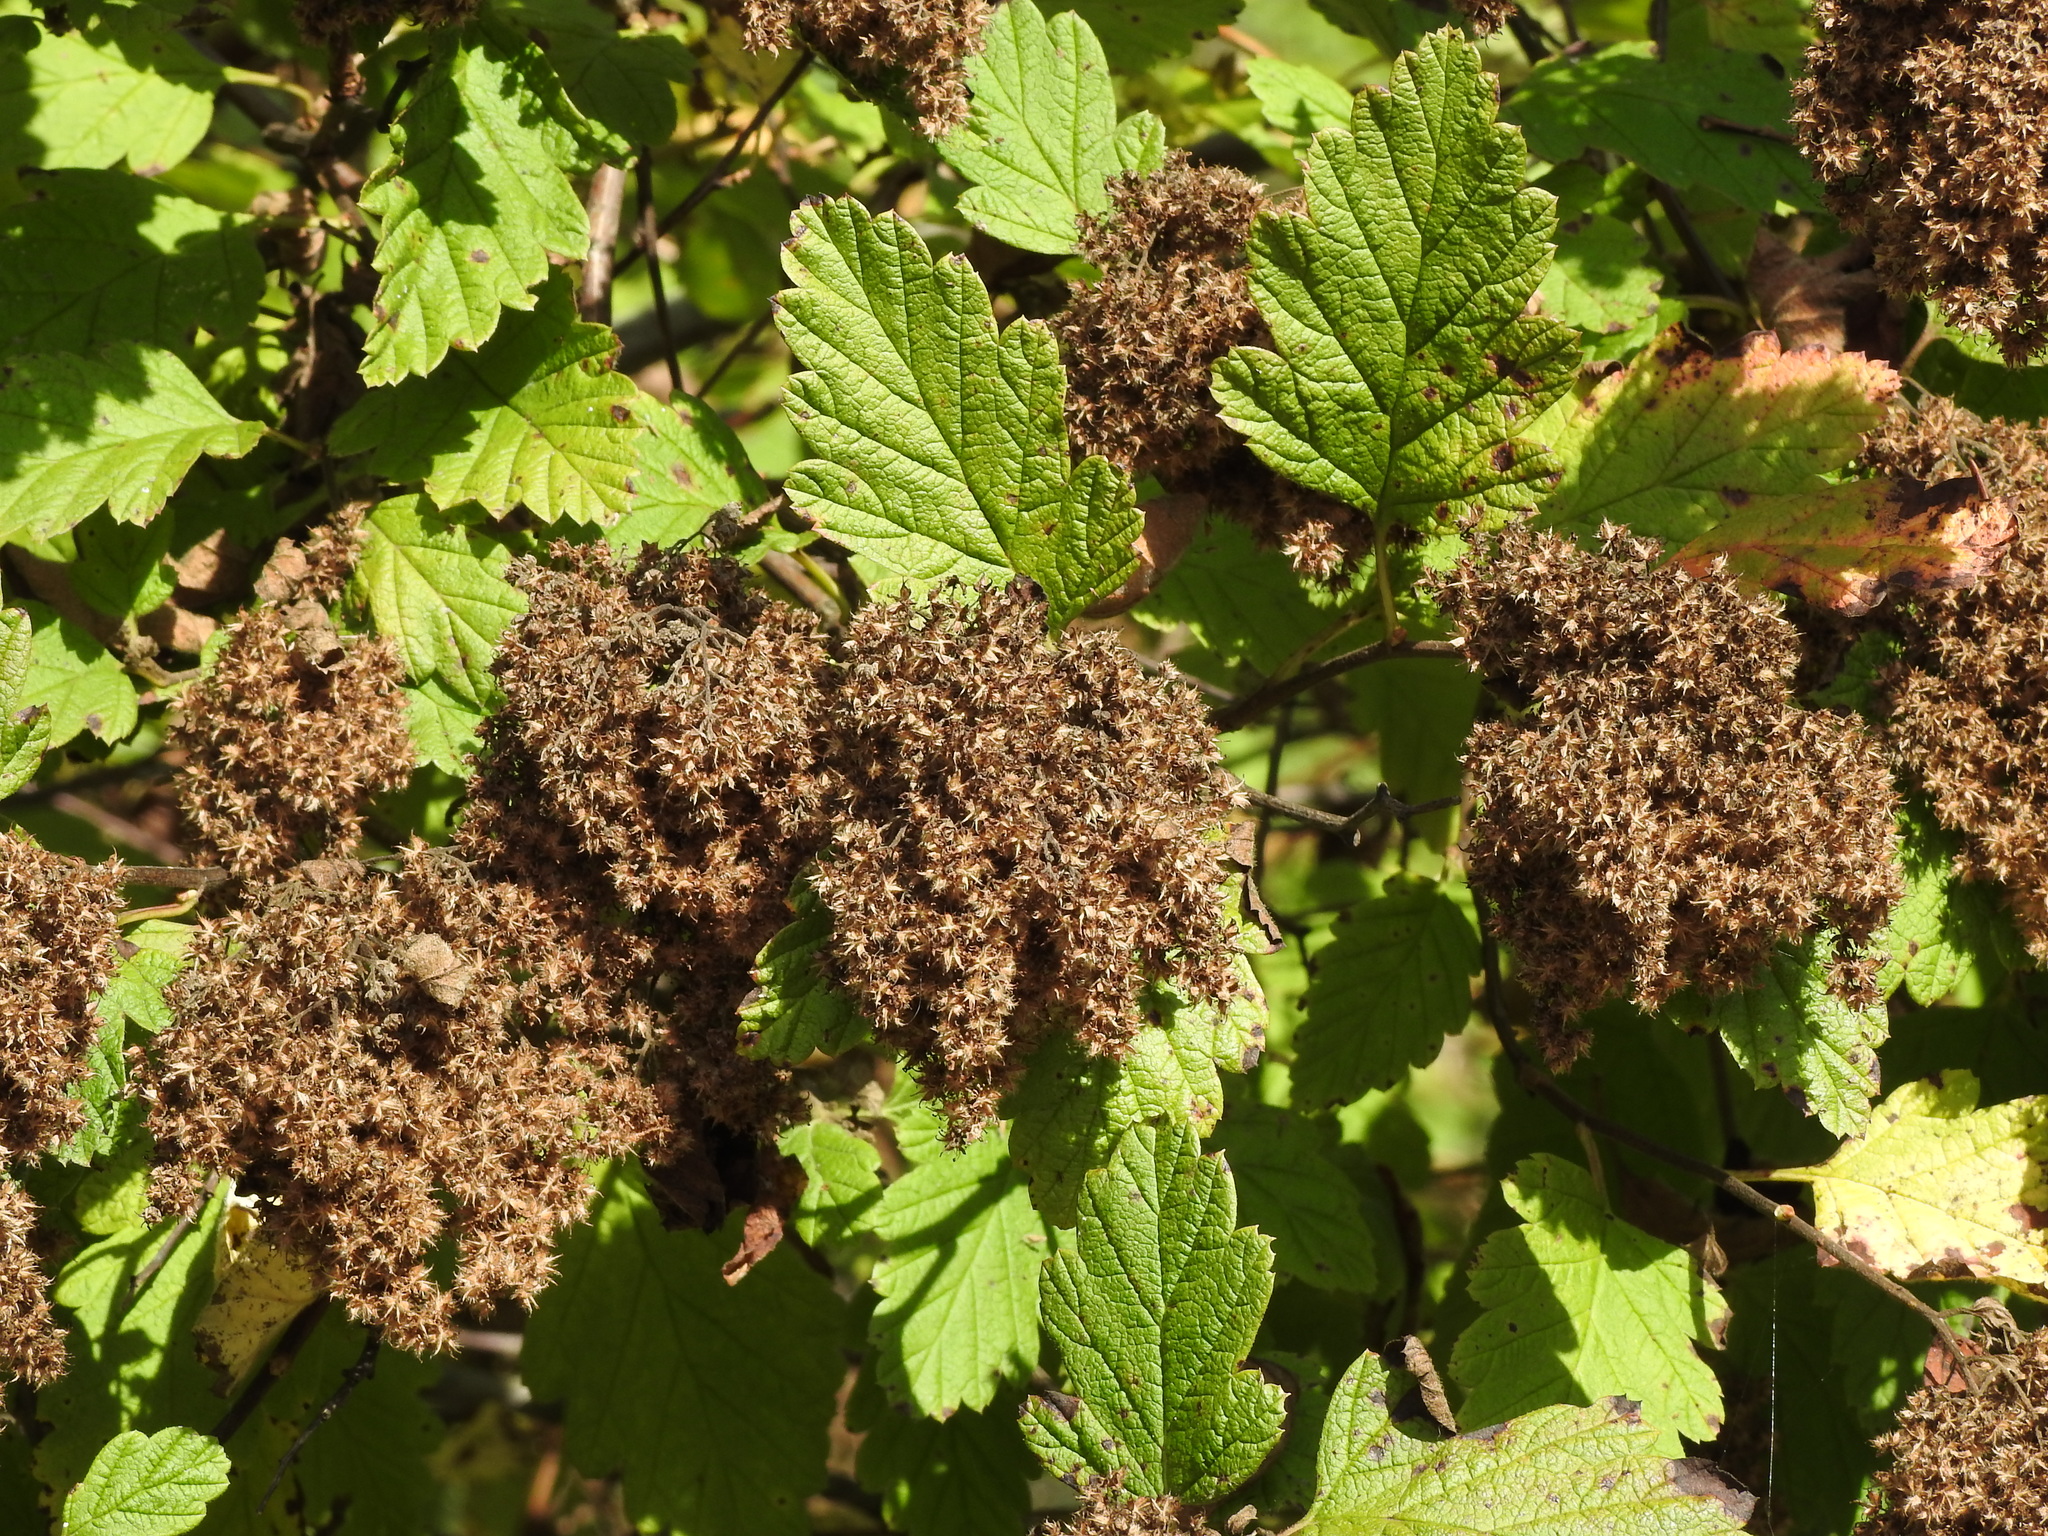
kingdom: Plantae
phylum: Tracheophyta
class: Magnoliopsida
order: Rosales
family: Rosaceae
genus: Holodiscus
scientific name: Holodiscus discolor
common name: Oceanspray
